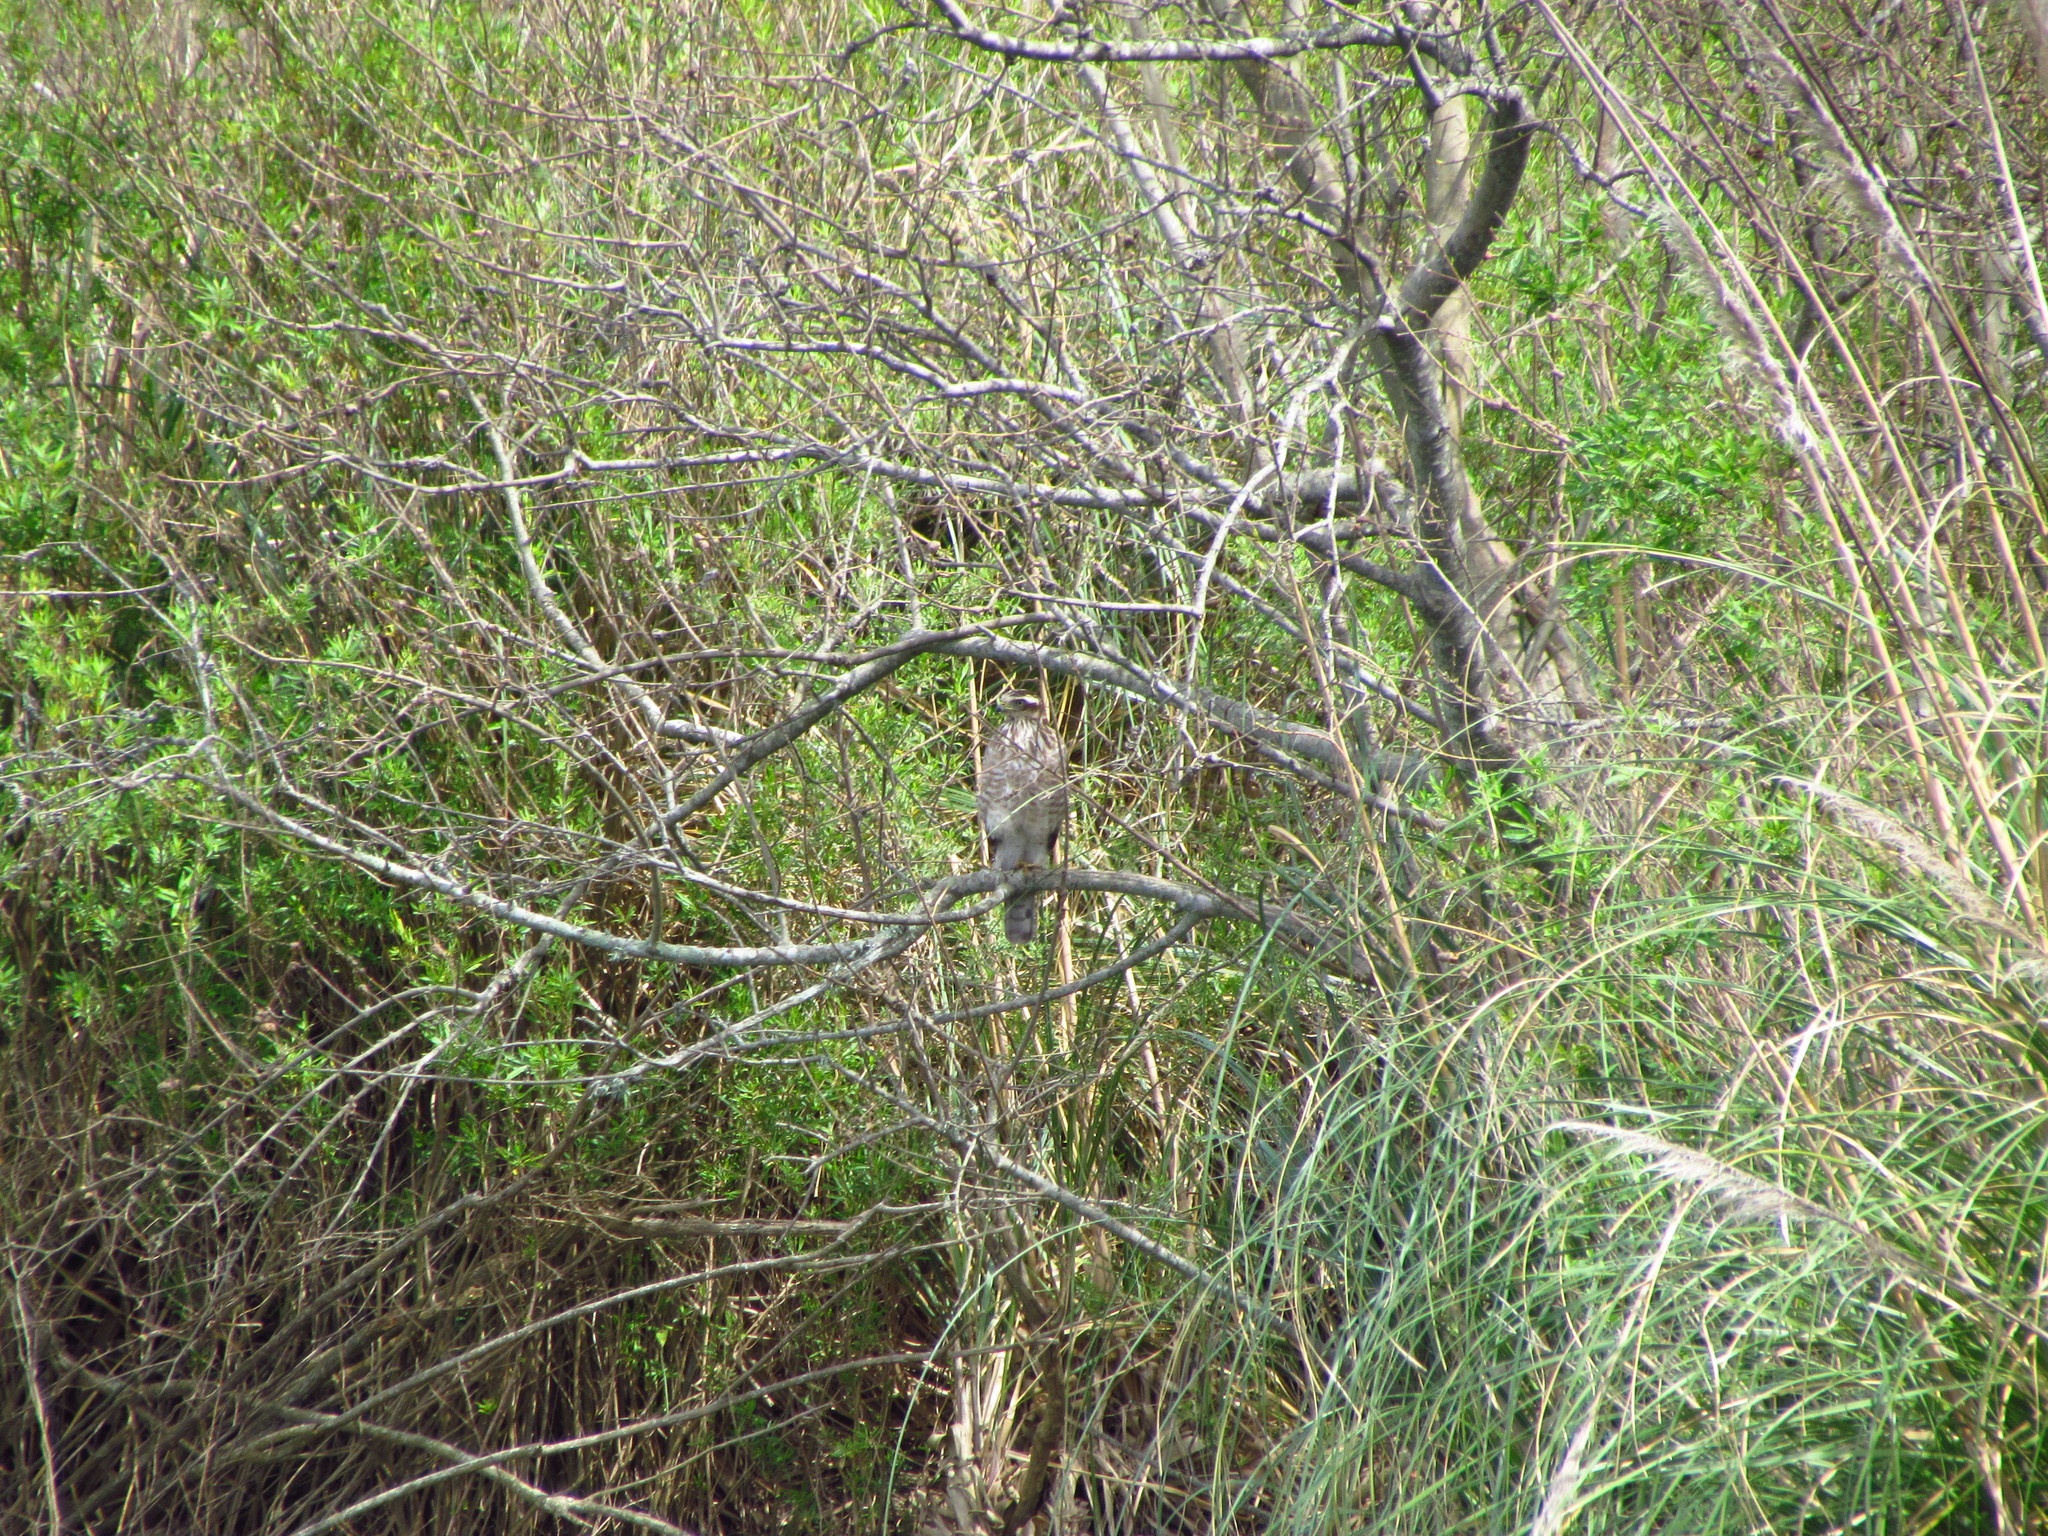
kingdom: Animalia
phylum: Chordata
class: Aves
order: Accipitriformes
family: Accipitridae
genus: Rupornis
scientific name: Rupornis magnirostris
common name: Roadside hawk
